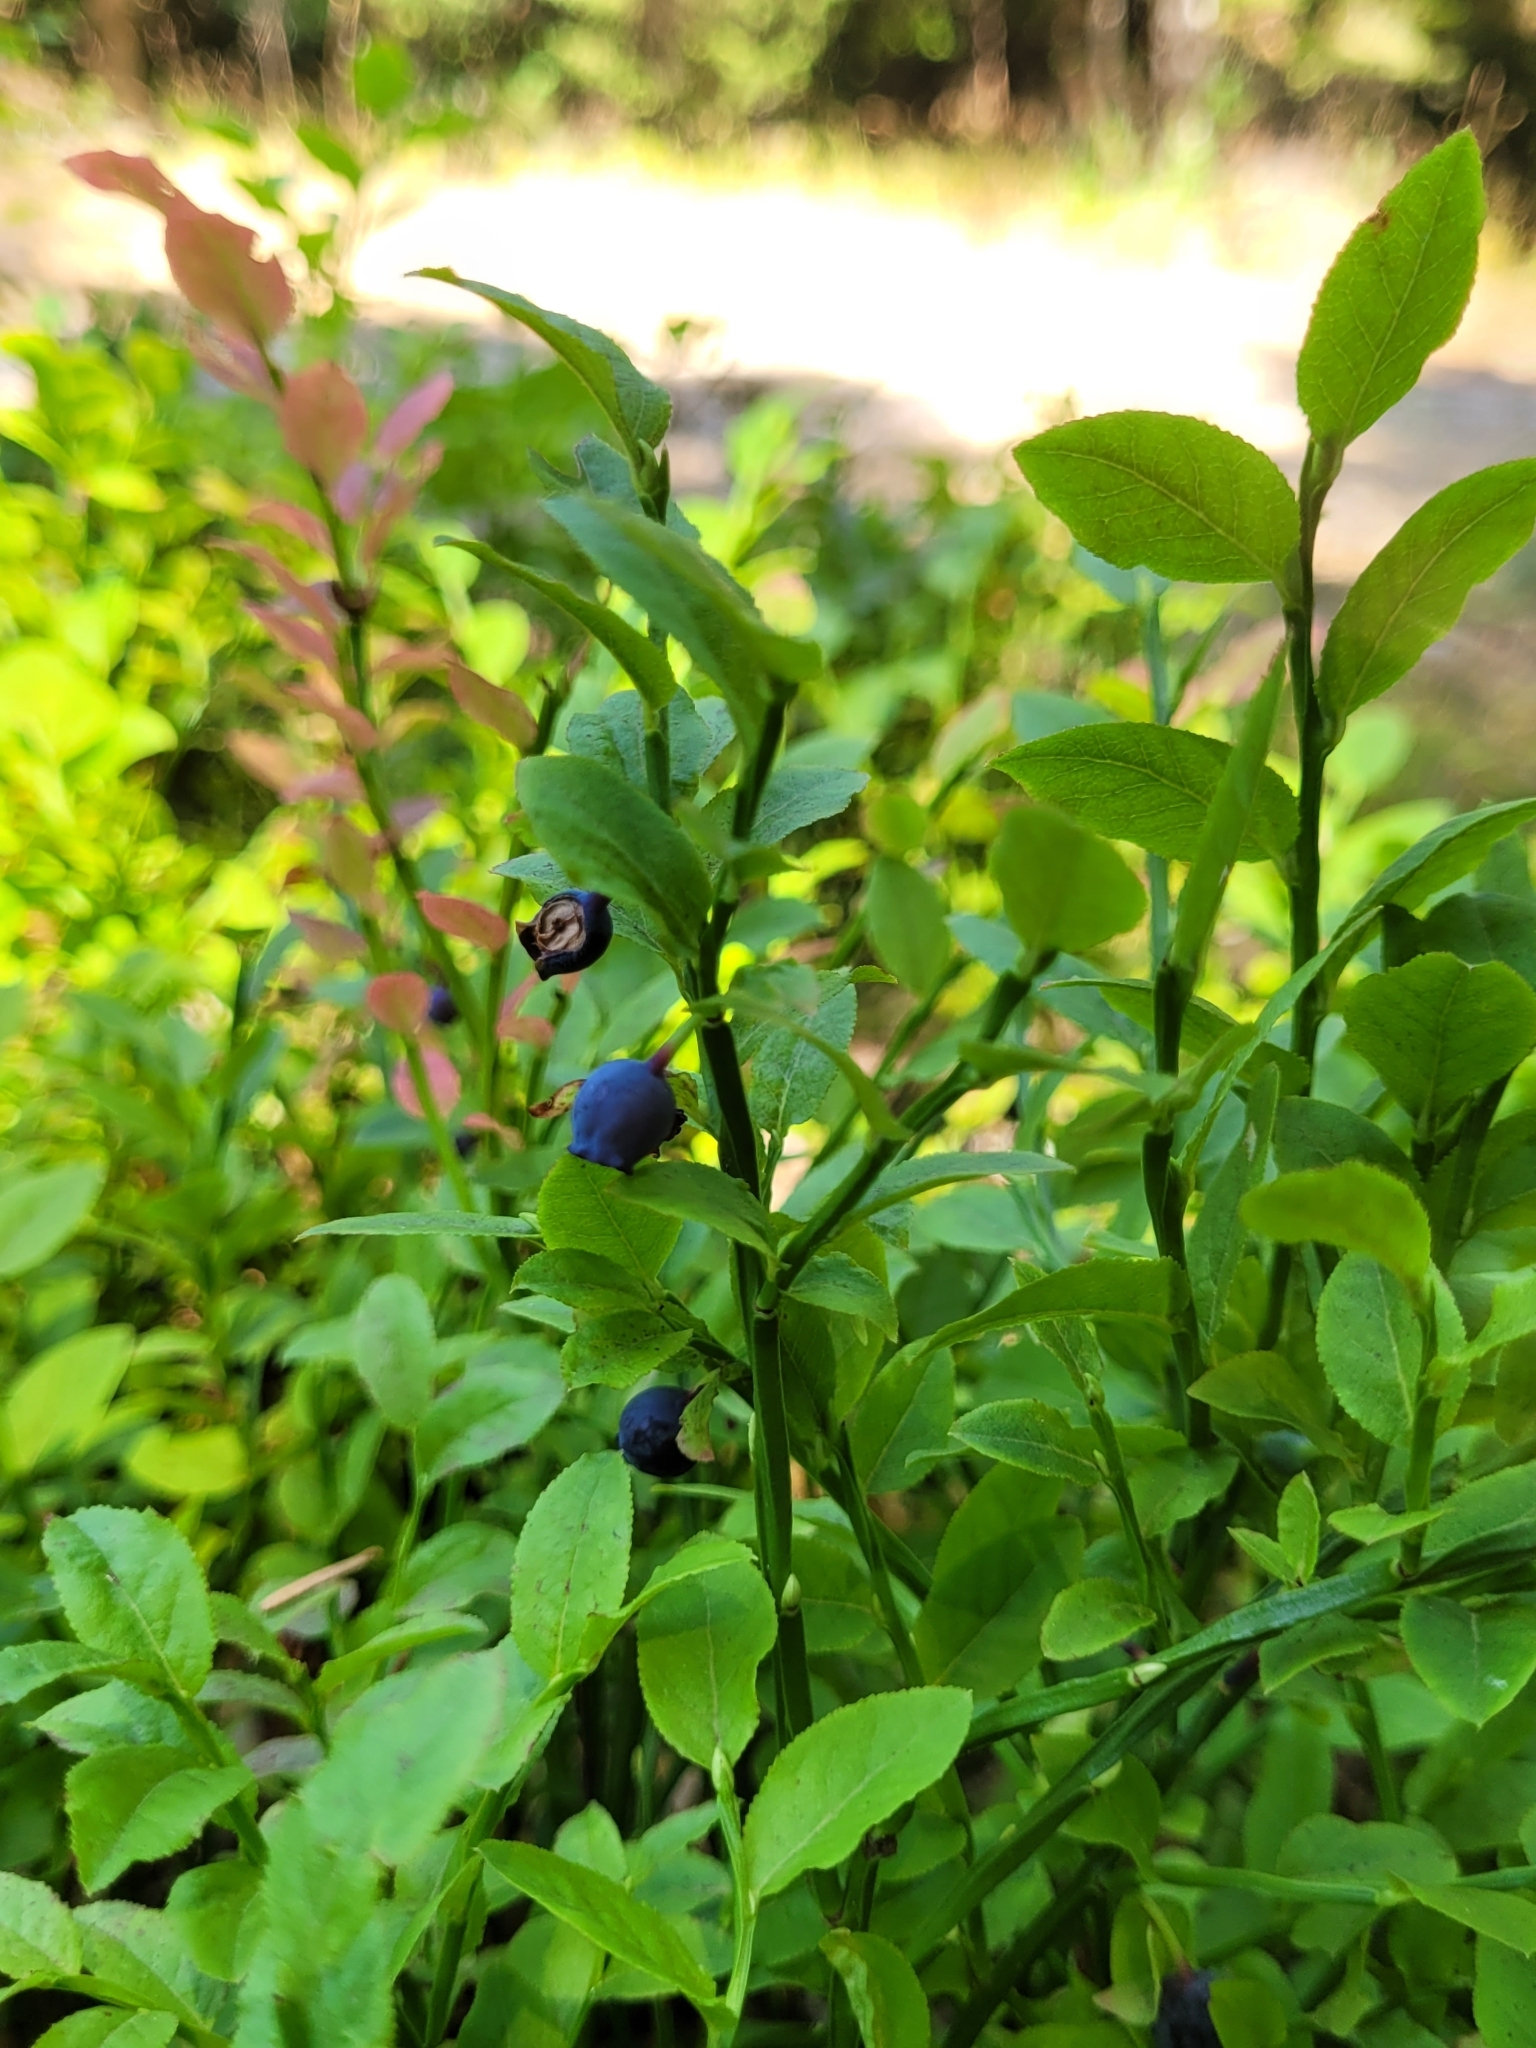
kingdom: Plantae
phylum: Tracheophyta
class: Magnoliopsida
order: Ericales
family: Ericaceae
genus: Vaccinium
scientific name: Vaccinium myrtillus
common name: Bilberry
